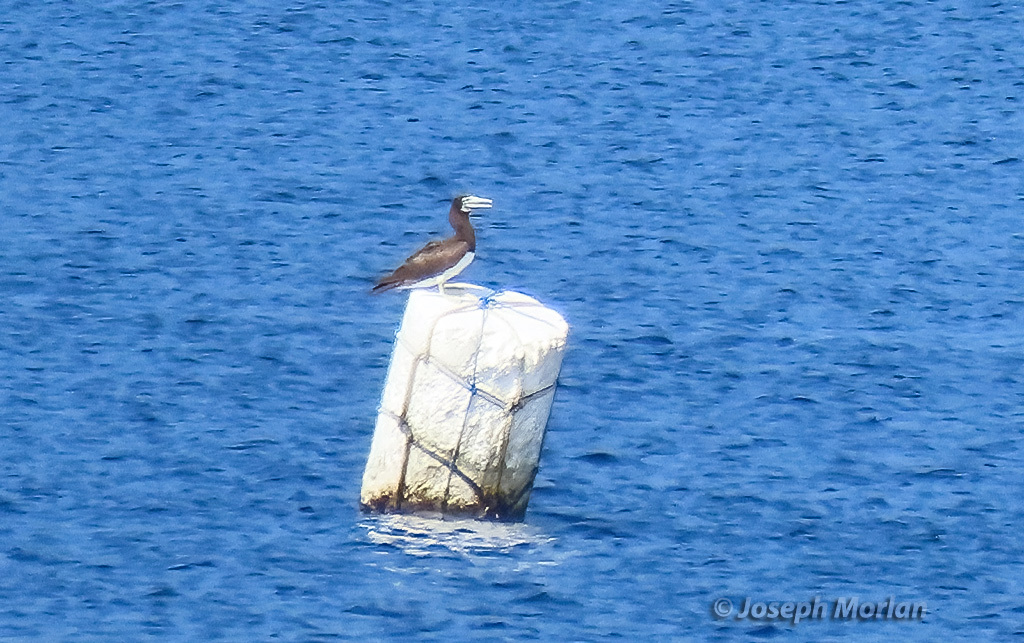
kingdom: Animalia
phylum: Chordata
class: Aves
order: Suliformes
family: Sulidae
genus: Sula
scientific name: Sula leucogaster
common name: Brown booby
